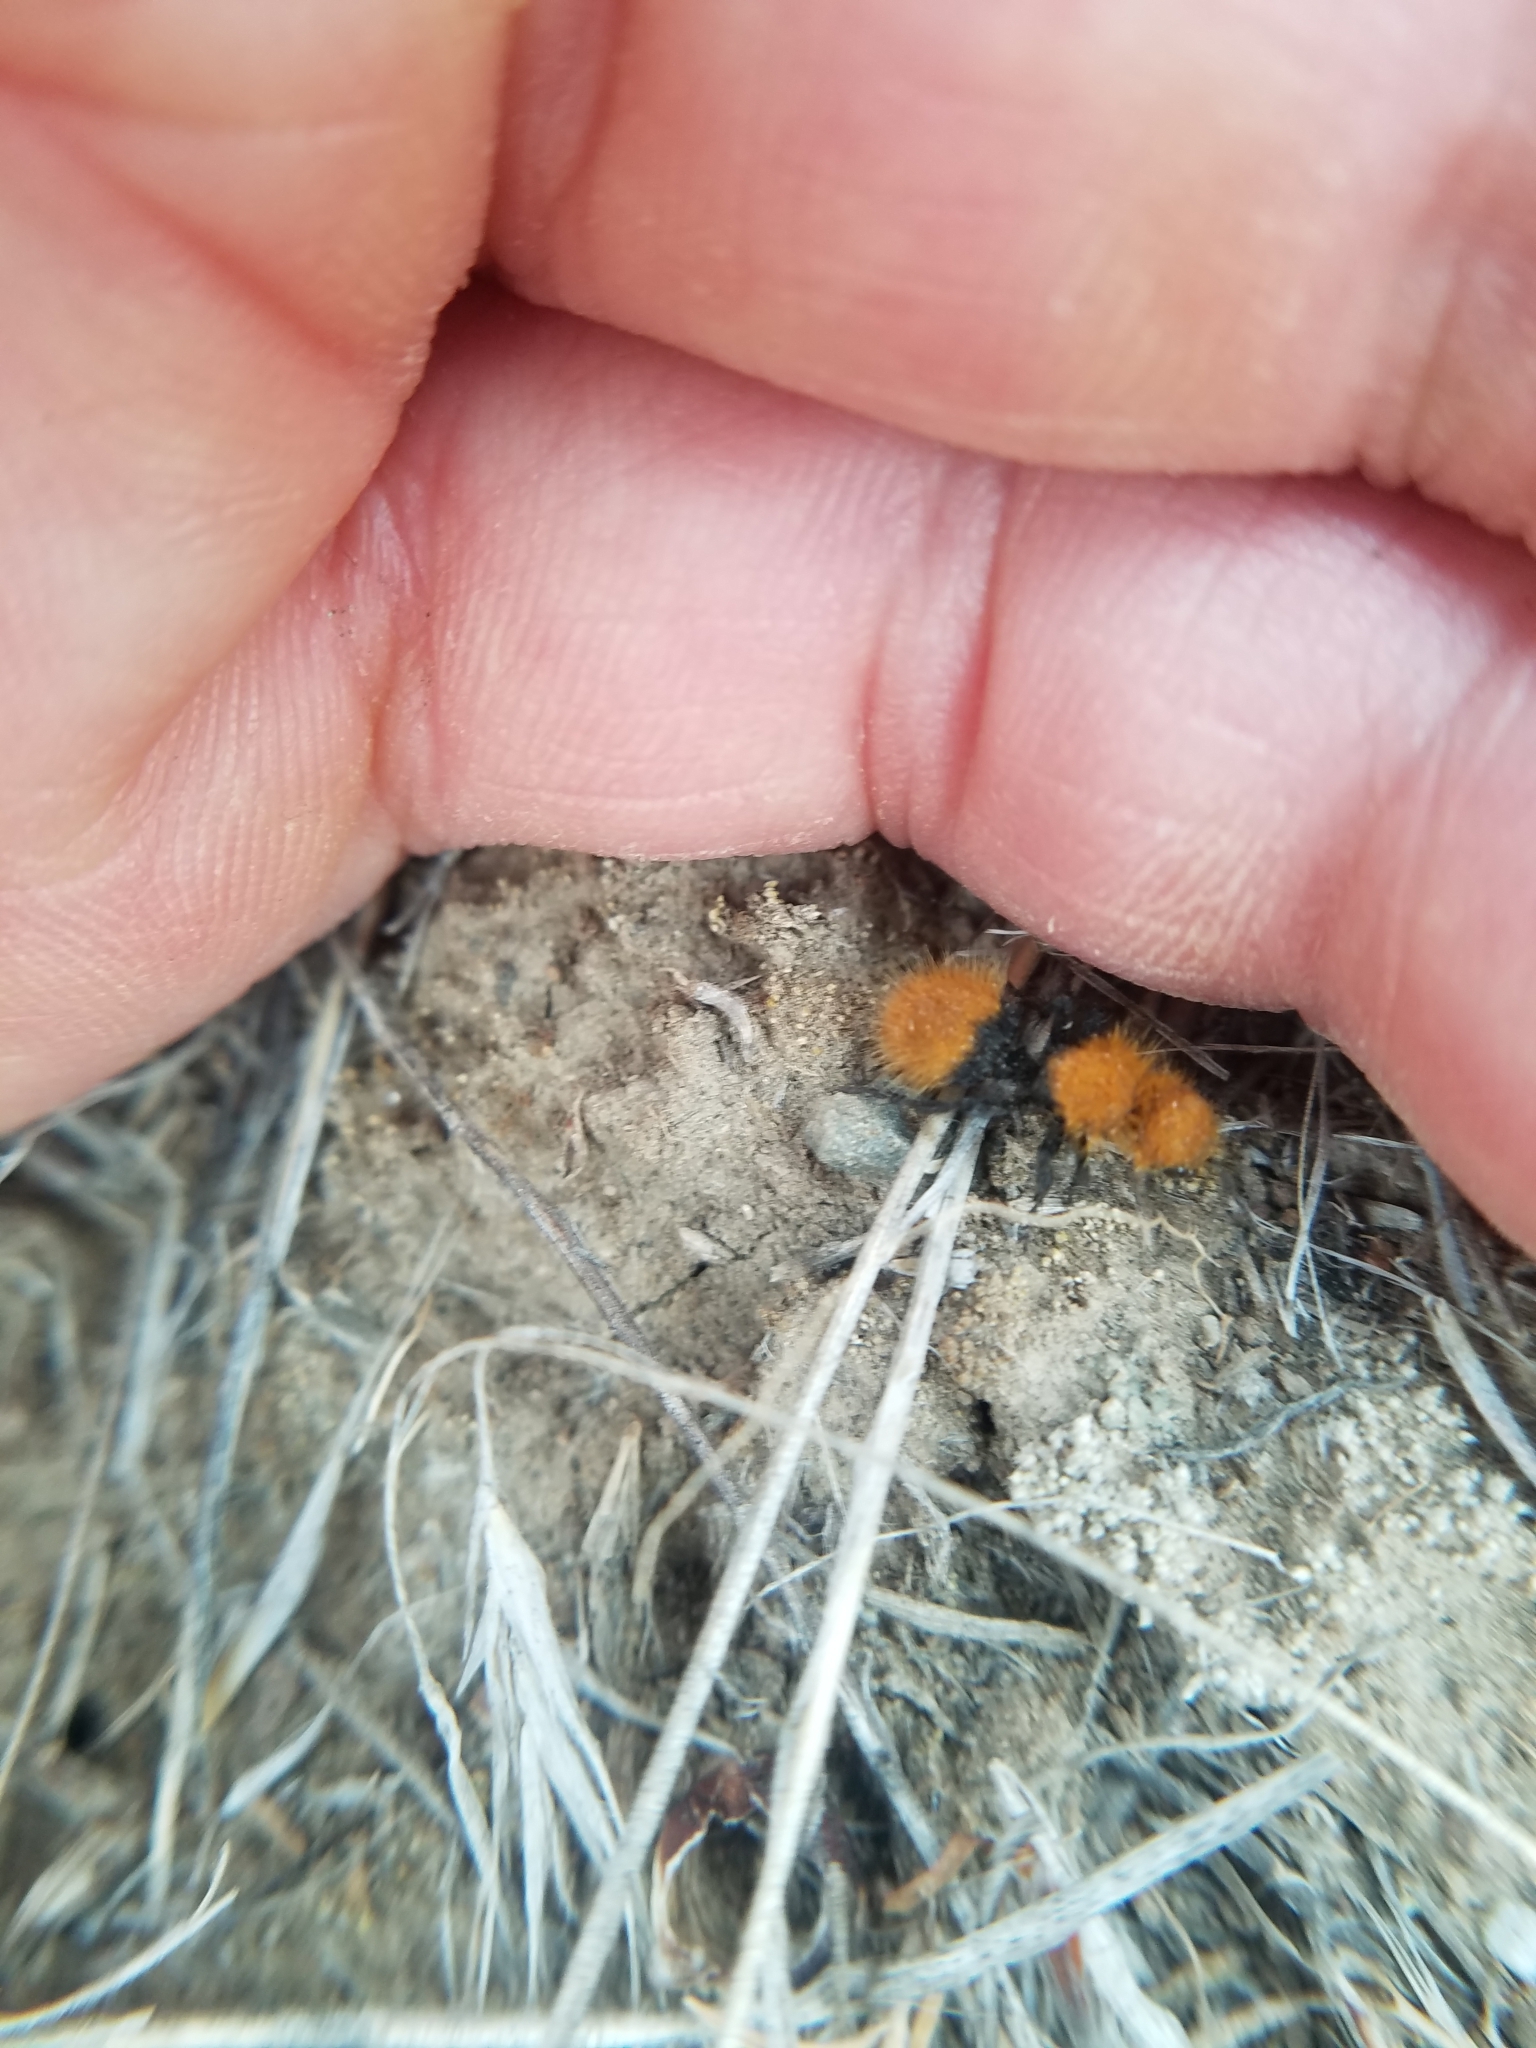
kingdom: Animalia
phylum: Arthropoda
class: Insecta
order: Hymenoptera
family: Mutillidae
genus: Dasymutilla
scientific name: Dasymutilla
